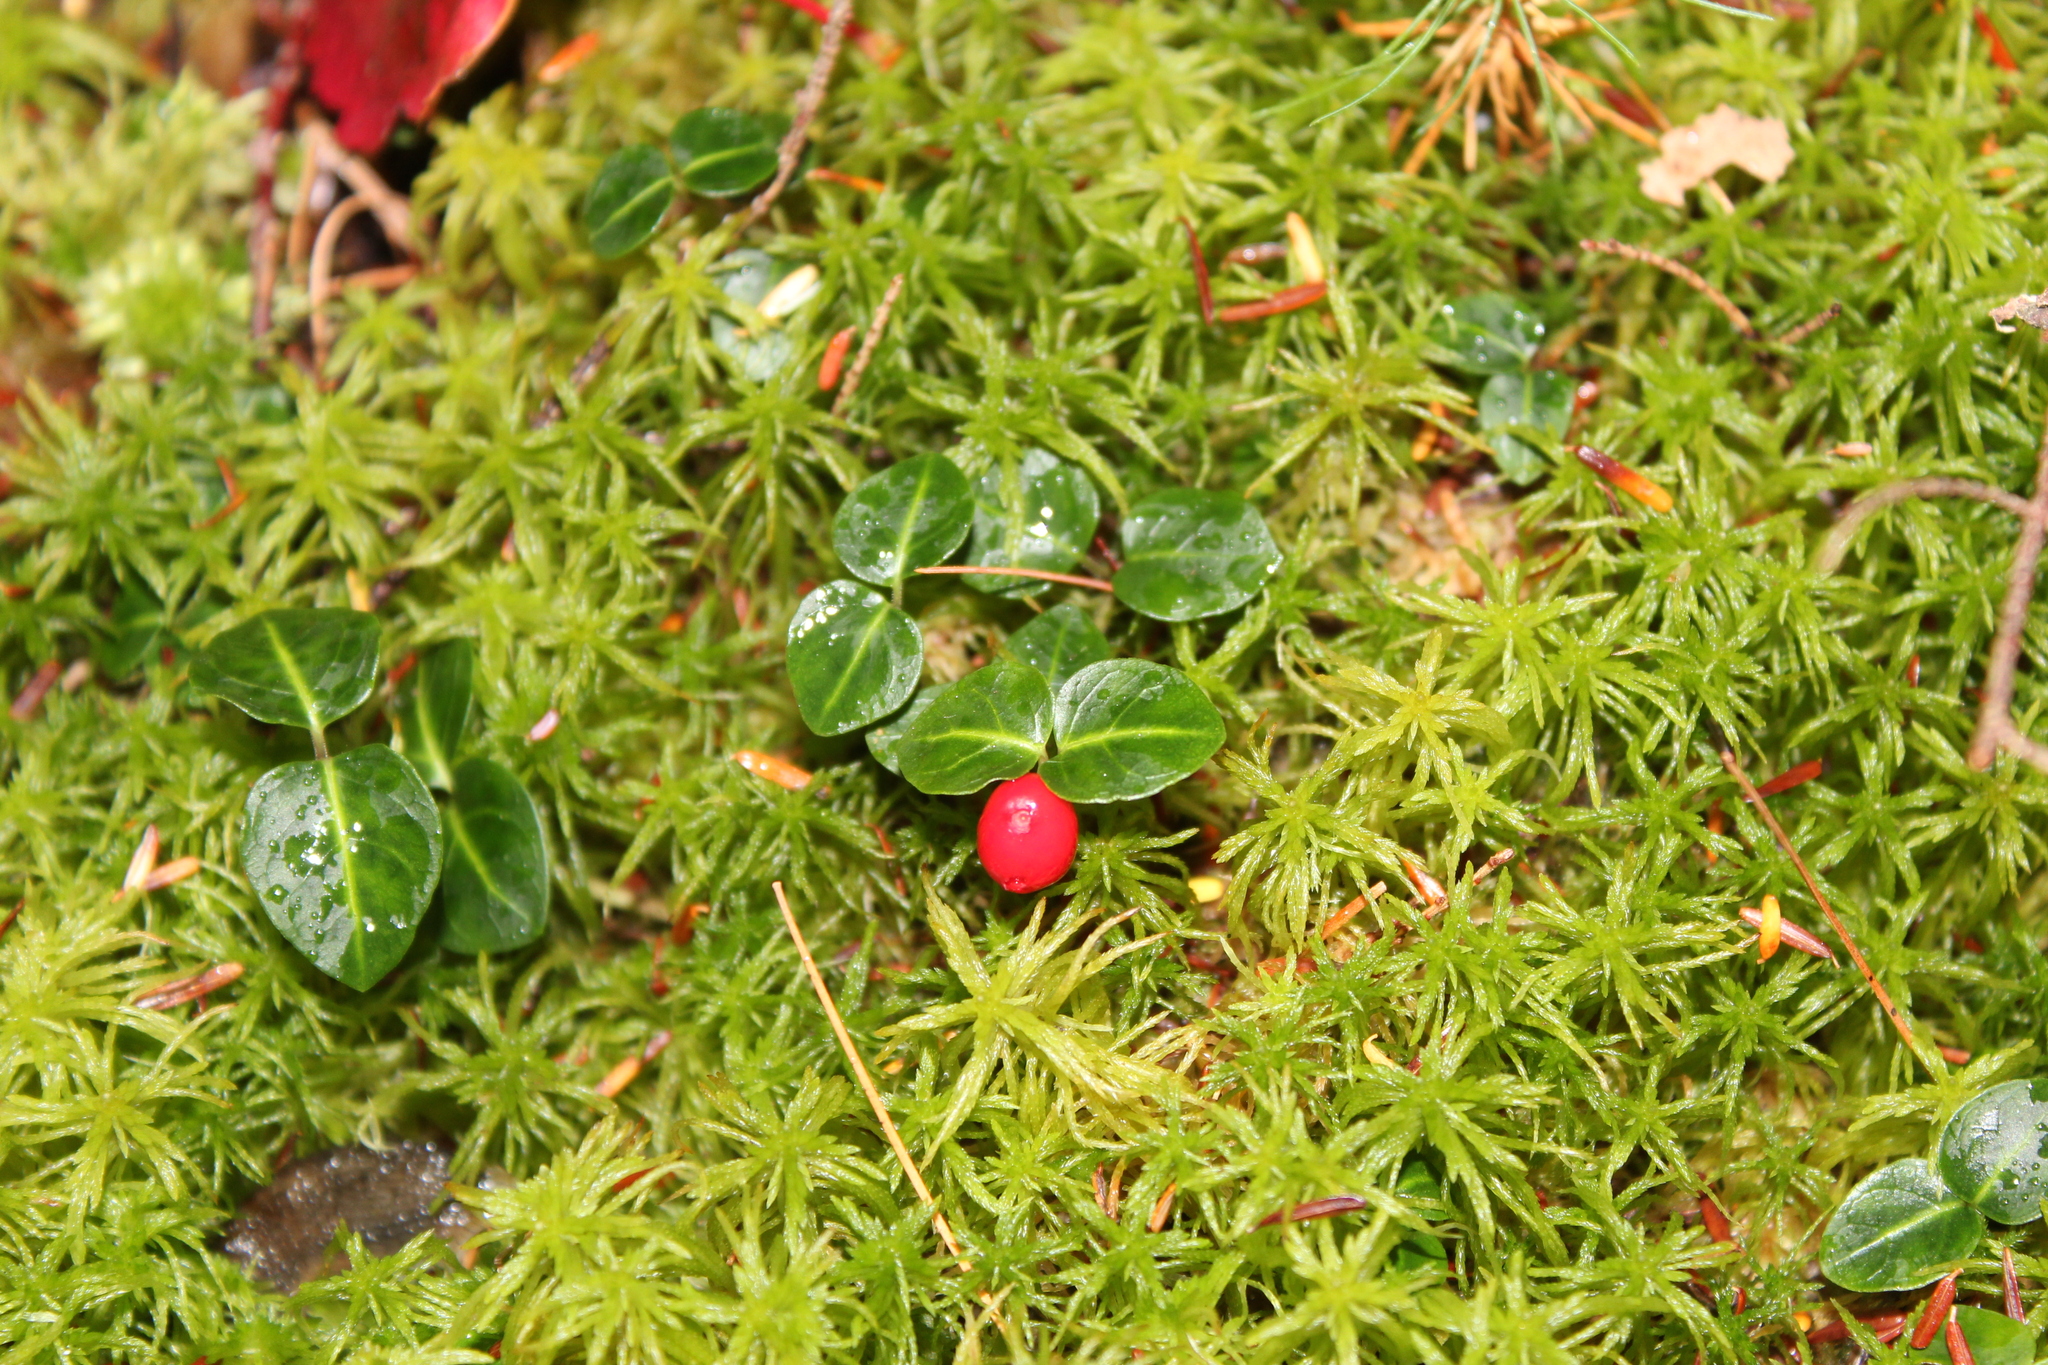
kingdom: Plantae
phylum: Tracheophyta
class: Magnoliopsida
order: Gentianales
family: Rubiaceae
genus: Mitchella
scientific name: Mitchella repens
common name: Partridge-berry
